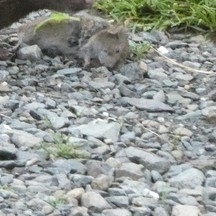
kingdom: Animalia
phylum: Chordata
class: Mammalia
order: Rodentia
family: Cricetidae
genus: Microtus
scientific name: Microtus pennsylvanicus
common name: Meadow vole
